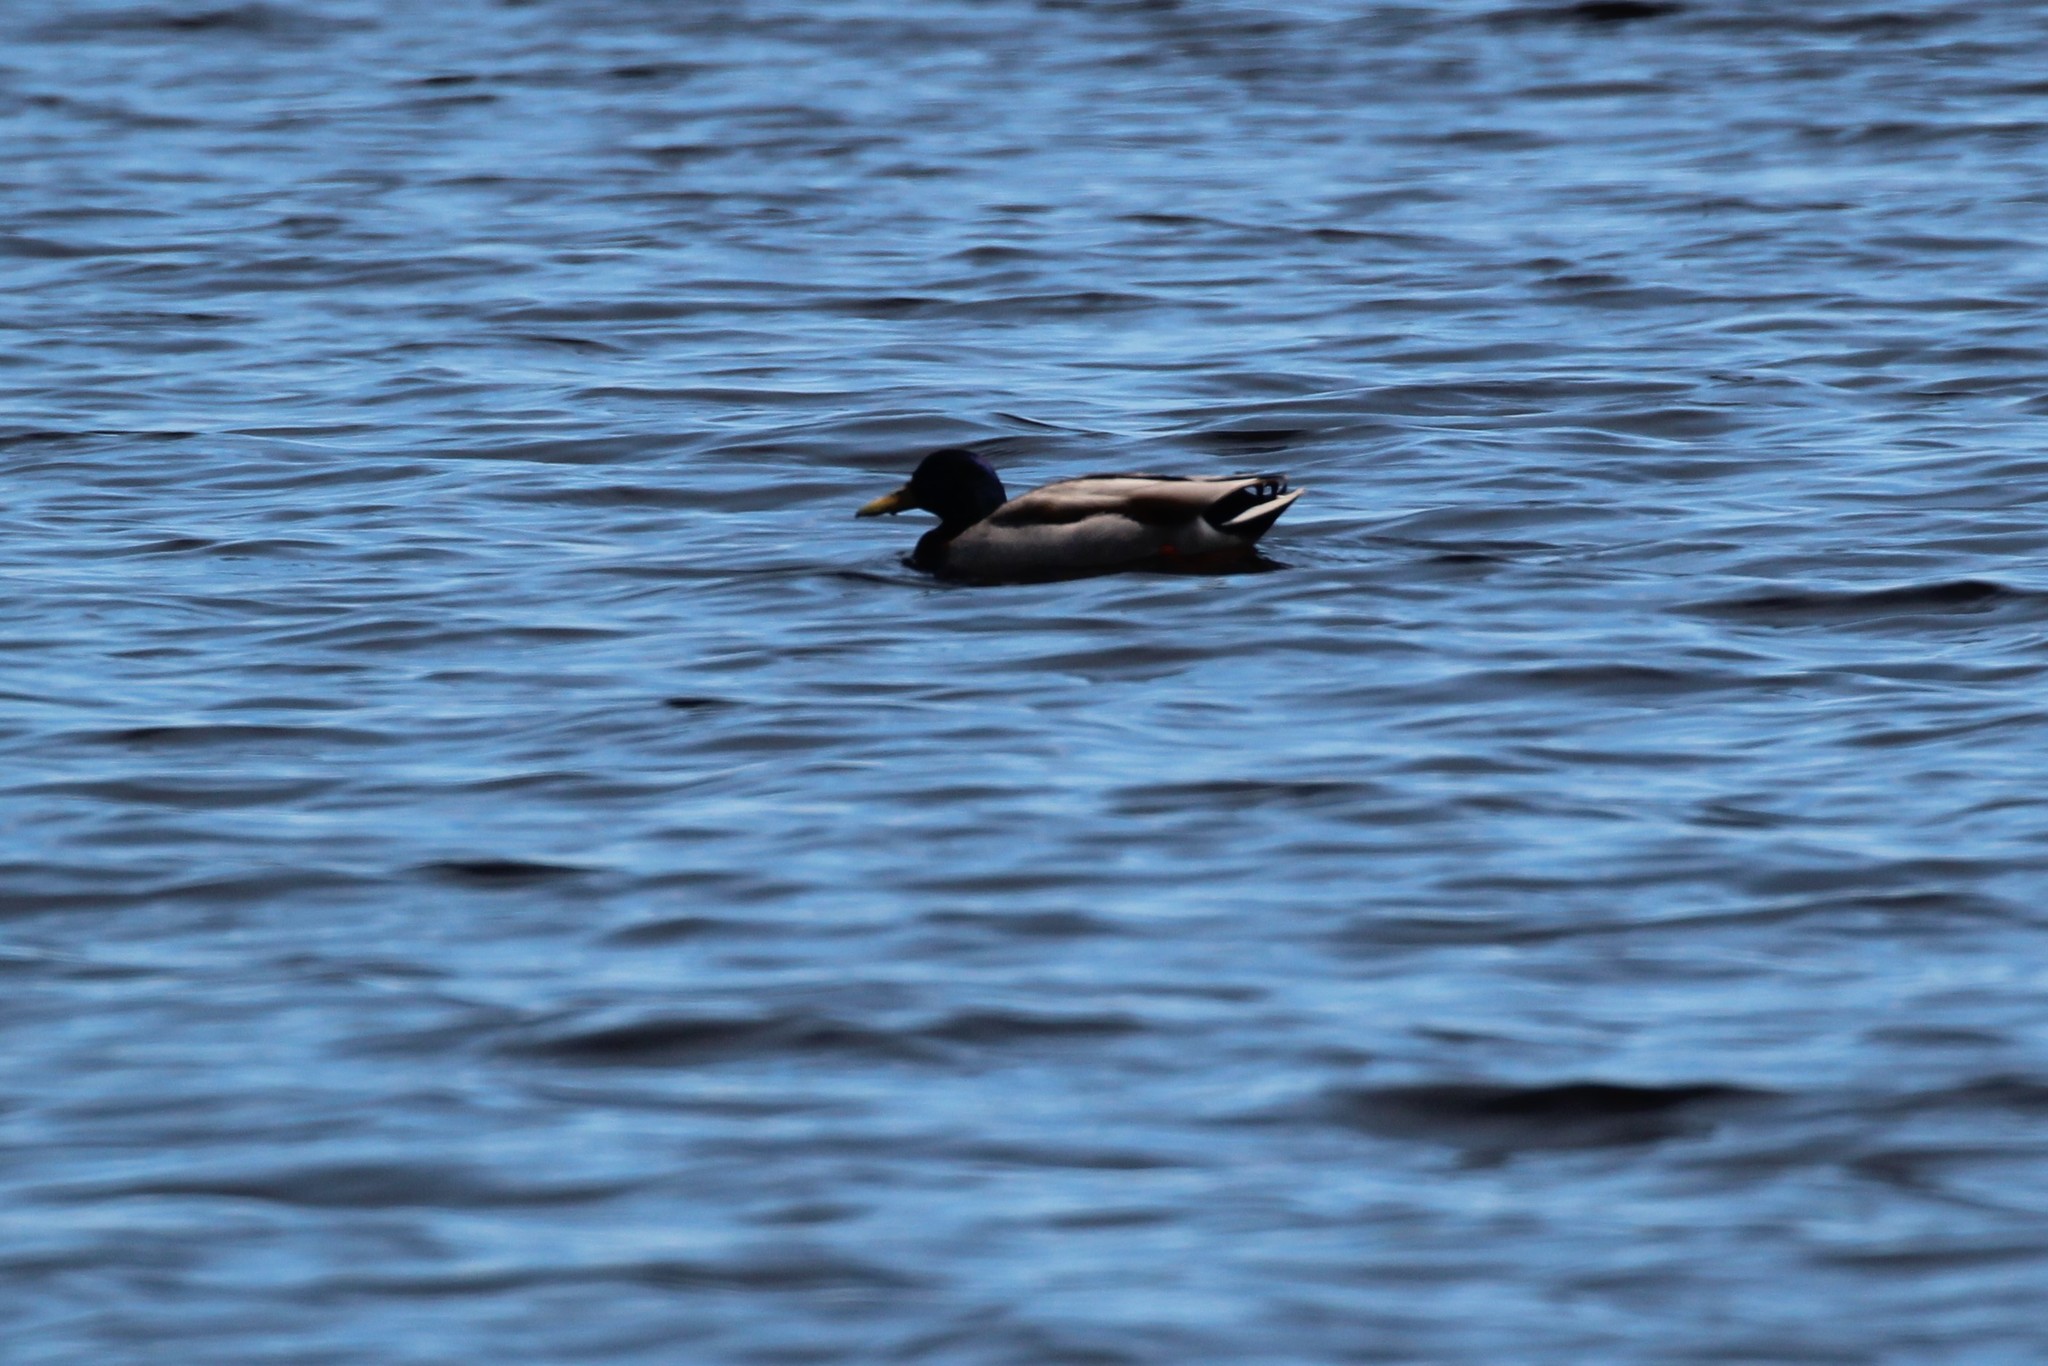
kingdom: Animalia
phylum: Chordata
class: Aves
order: Anseriformes
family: Anatidae
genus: Anas
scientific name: Anas platyrhynchos
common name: Mallard
